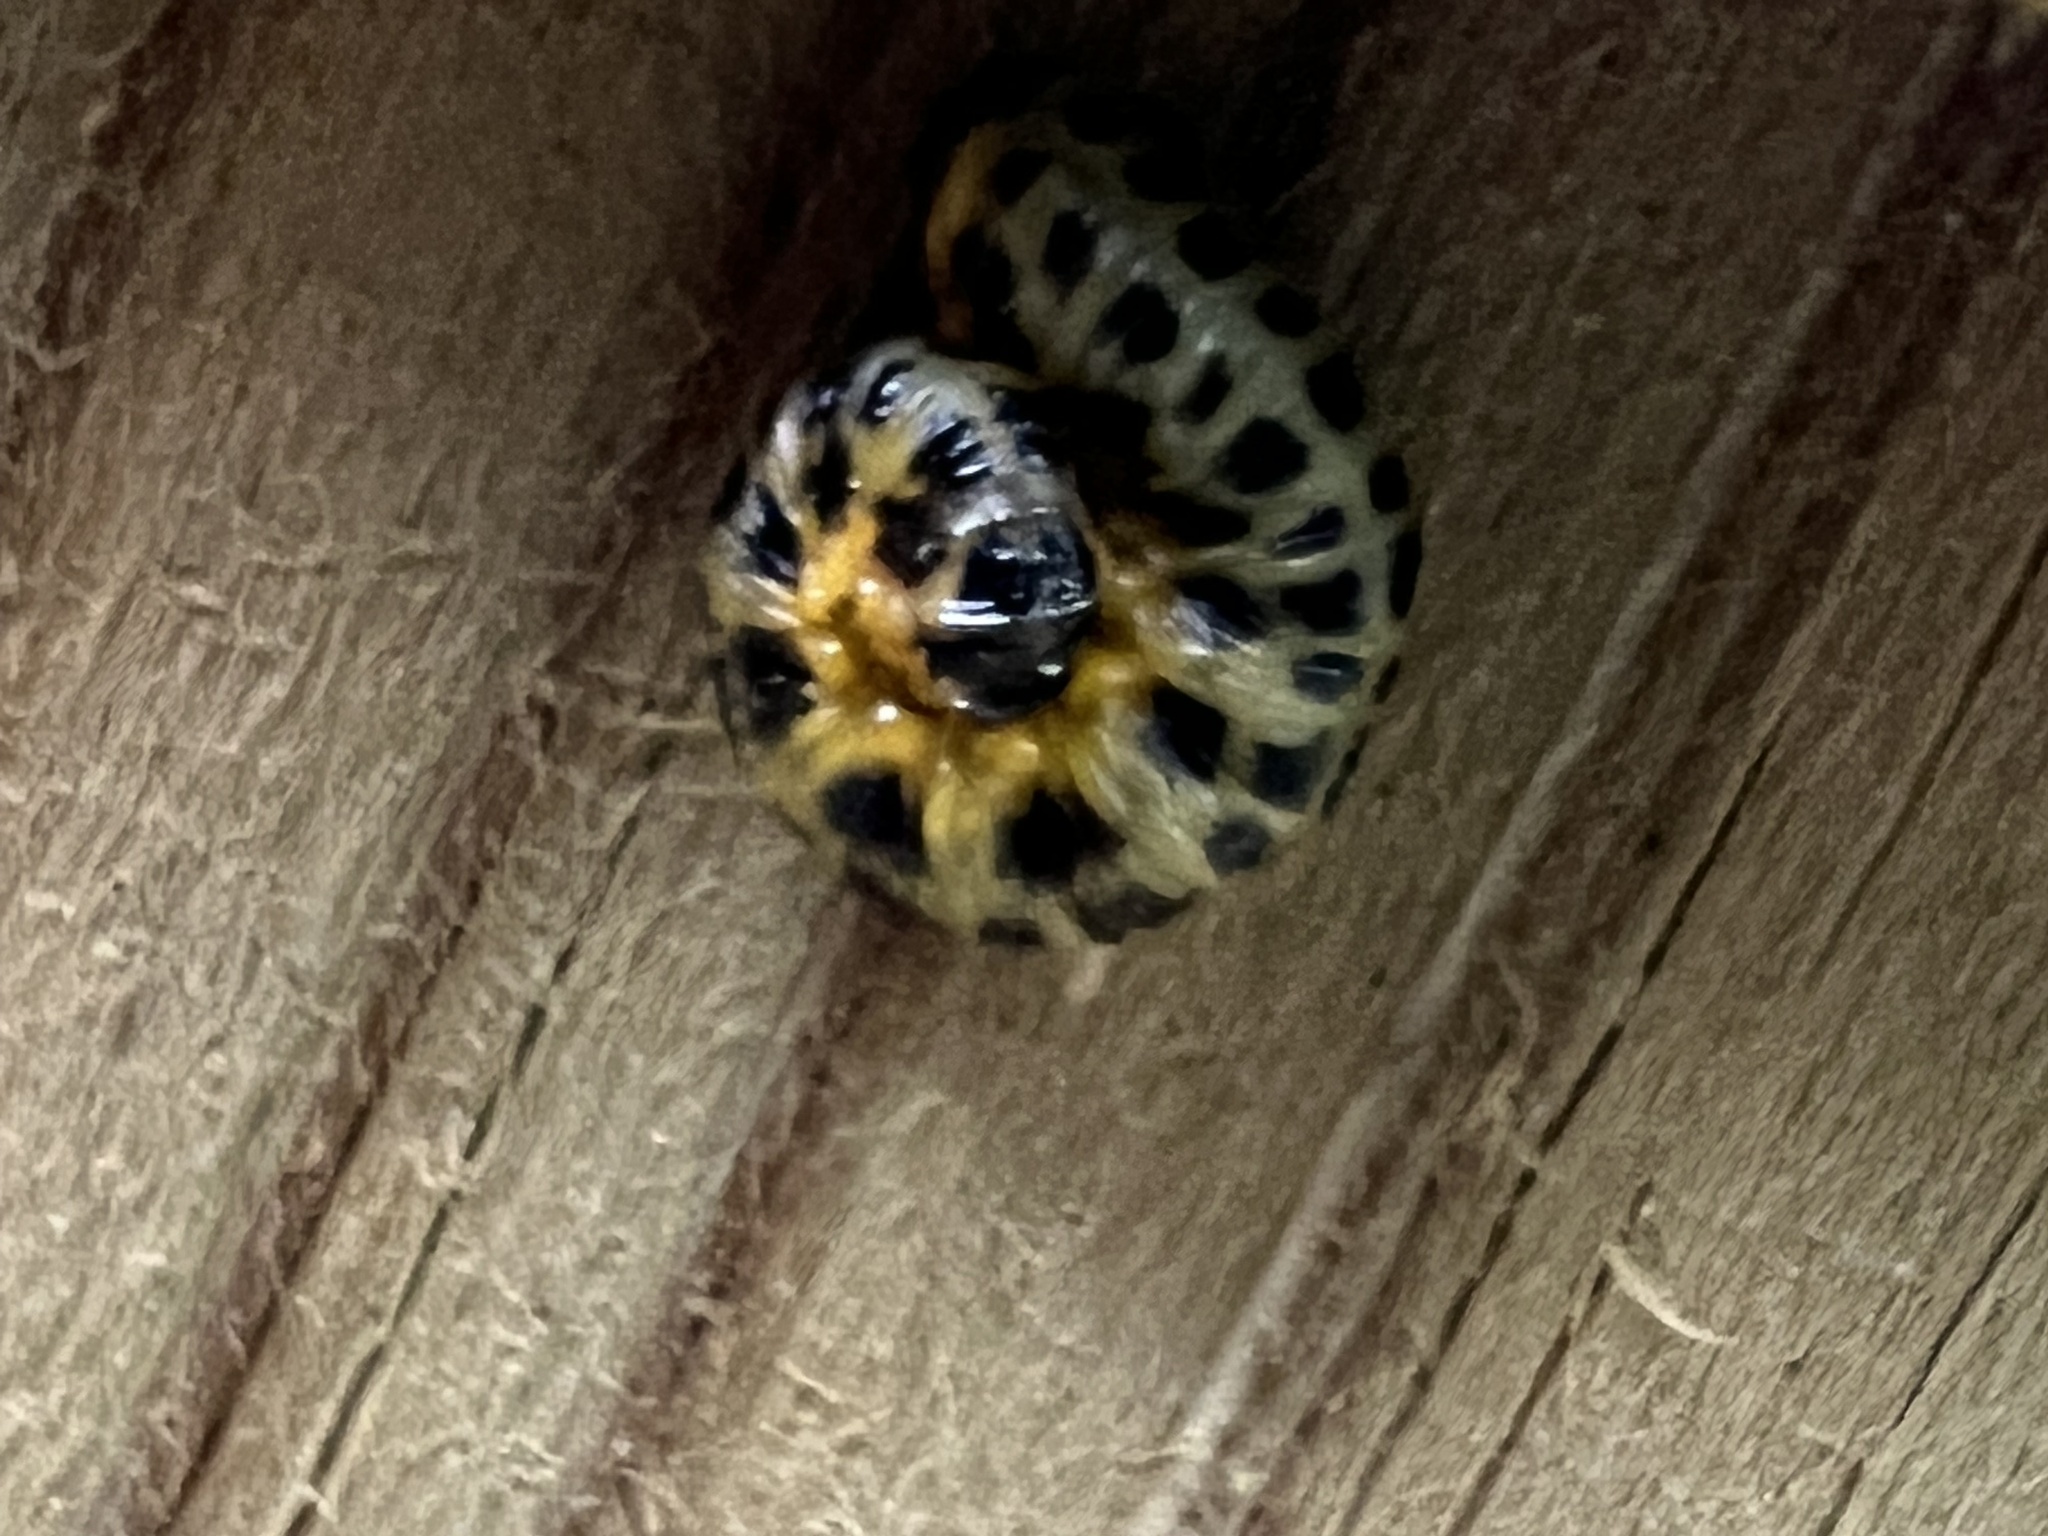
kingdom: Animalia
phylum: Arthropoda
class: Insecta
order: Hymenoptera
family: Tenthredinidae
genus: Macremphytus
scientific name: Macremphytus testaceus
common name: Dogwood sawfly
